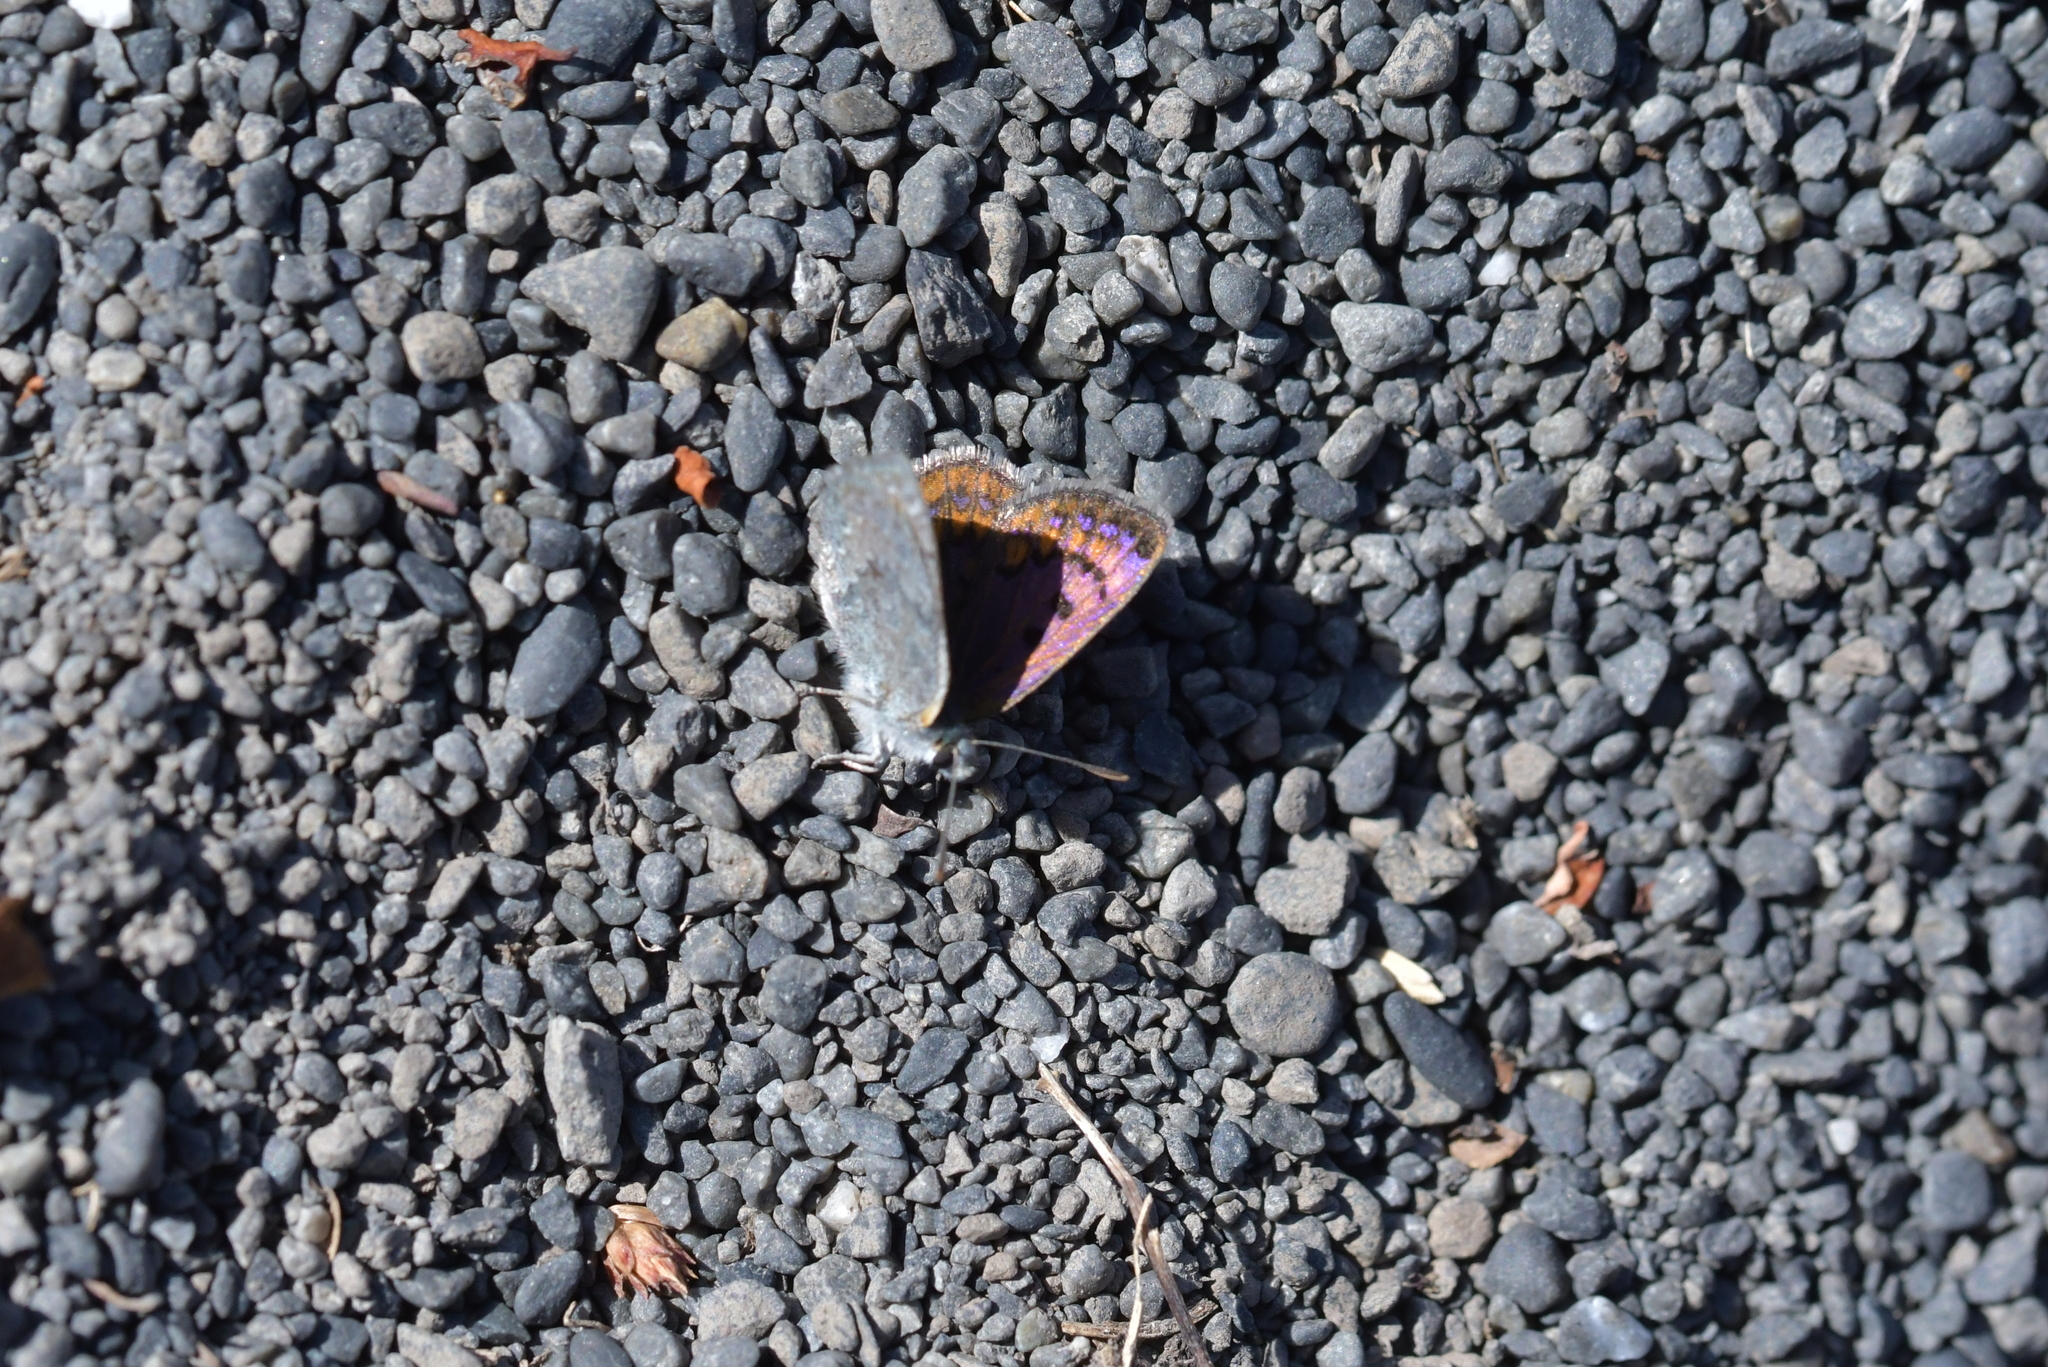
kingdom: Animalia
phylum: Arthropoda
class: Insecta
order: Lepidoptera
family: Lycaenidae
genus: Lycaena
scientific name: Lycaena boldenarum
